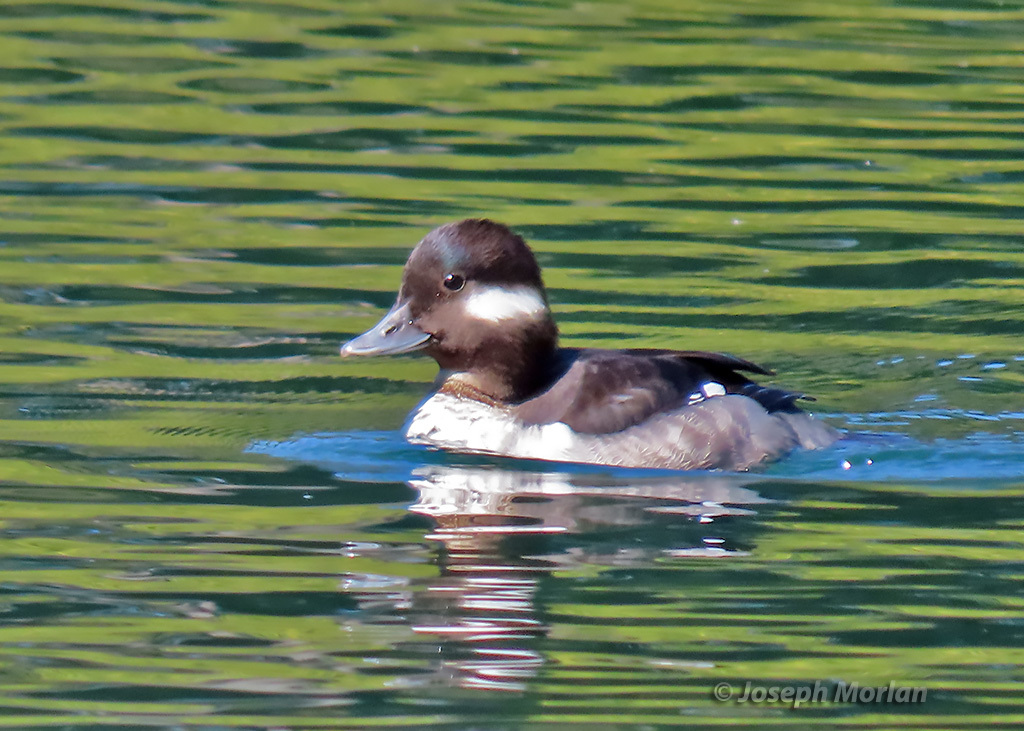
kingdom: Animalia
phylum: Chordata
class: Aves
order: Anseriformes
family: Anatidae
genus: Bucephala
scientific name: Bucephala albeola
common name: Bufflehead
